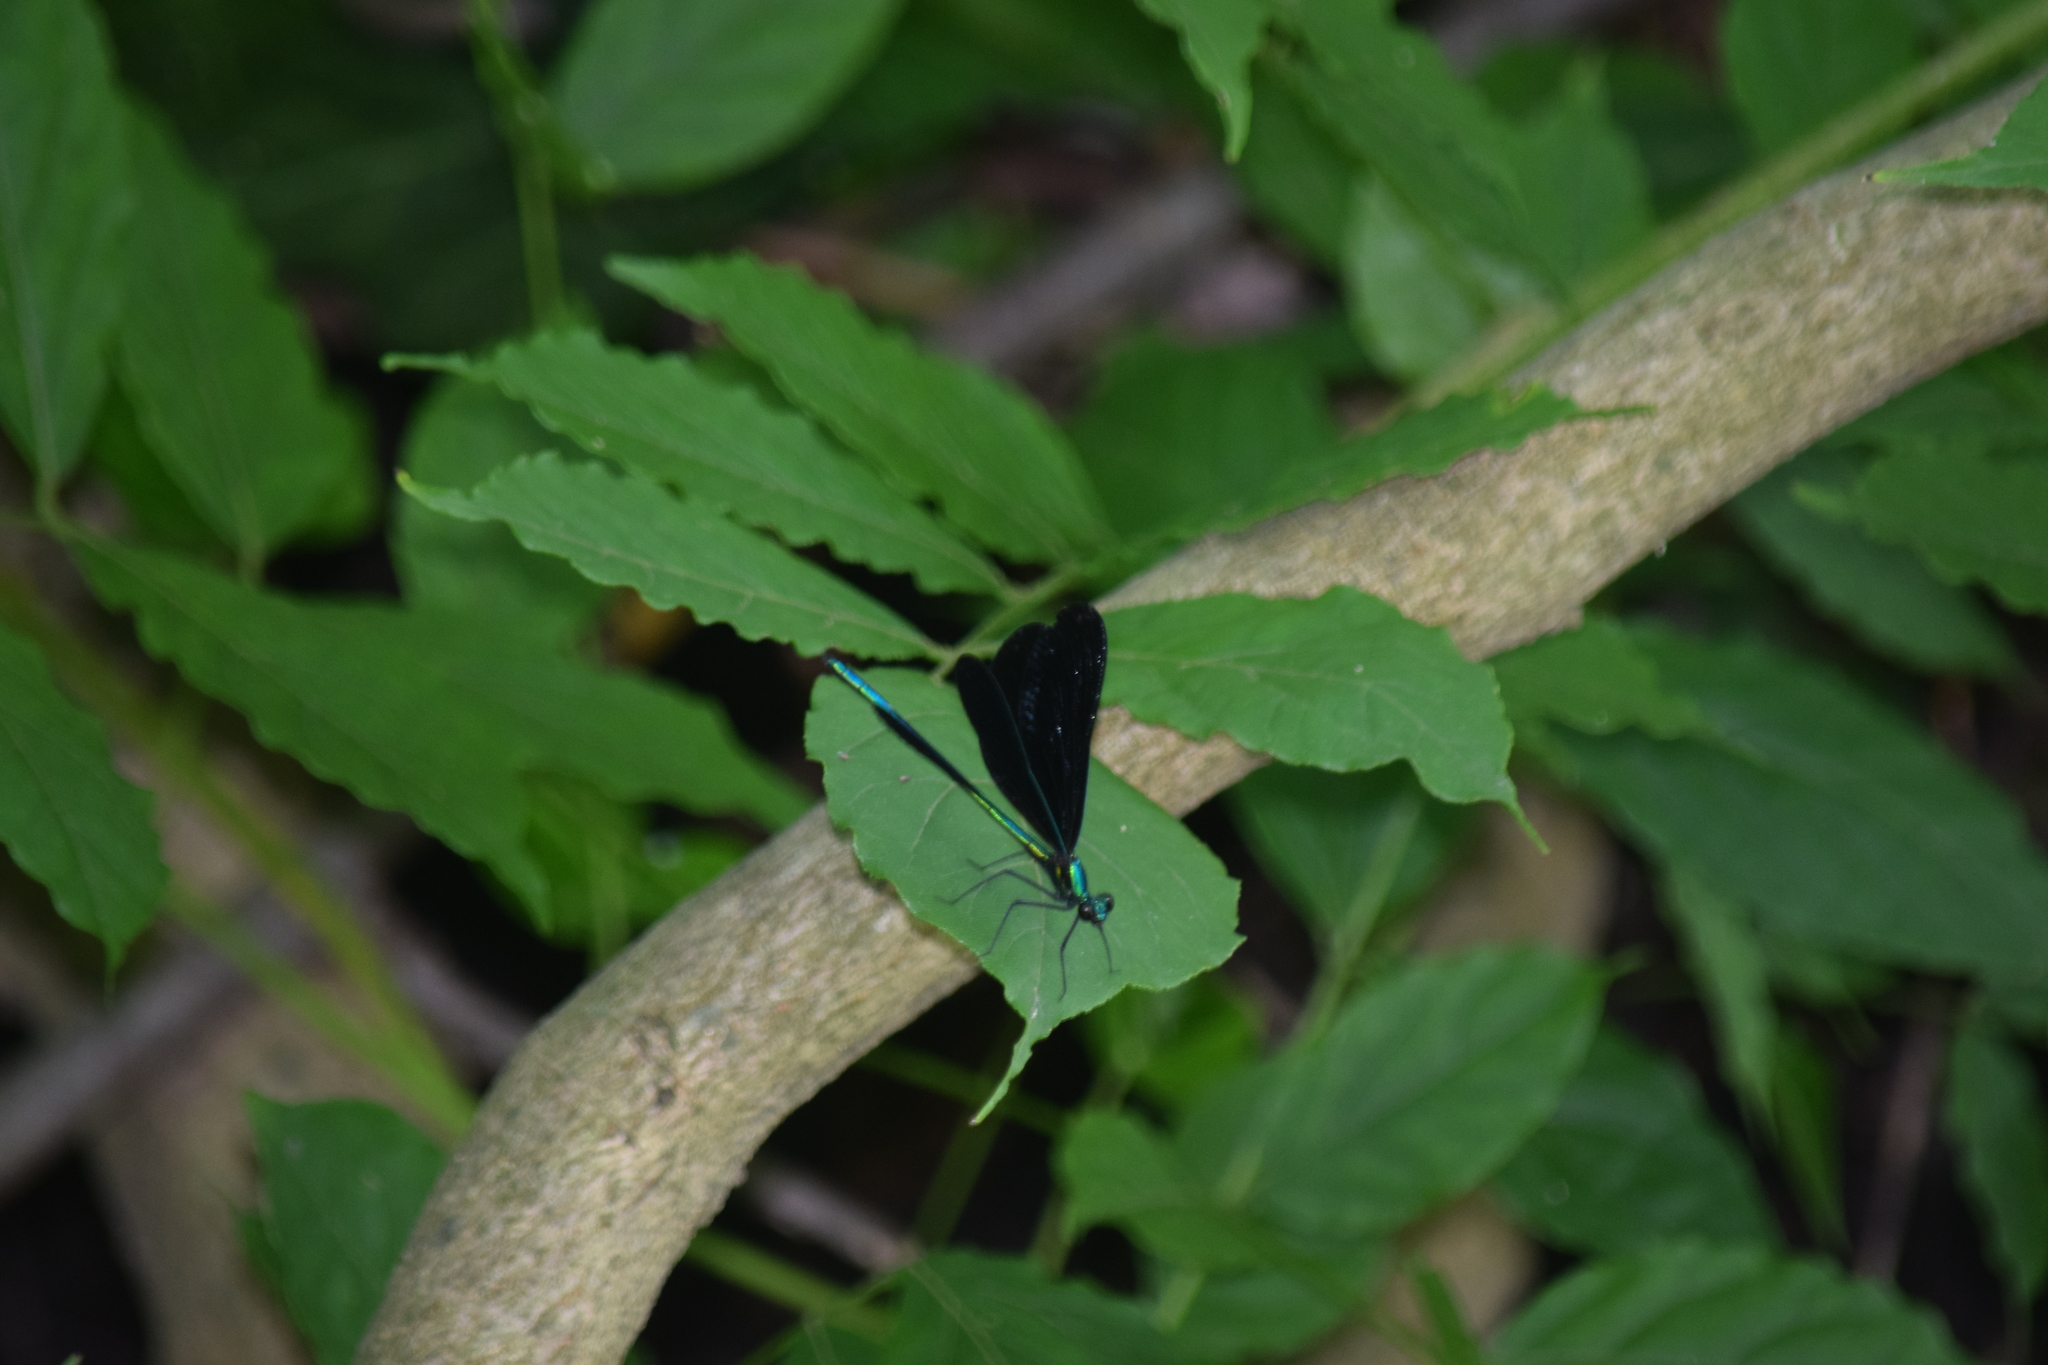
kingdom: Animalia
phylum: Arthropoda
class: Insecta
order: Odonata
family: Calopterygidae
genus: Calopteryx
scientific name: Calopteryx maculata
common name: Ebony jewelwing
